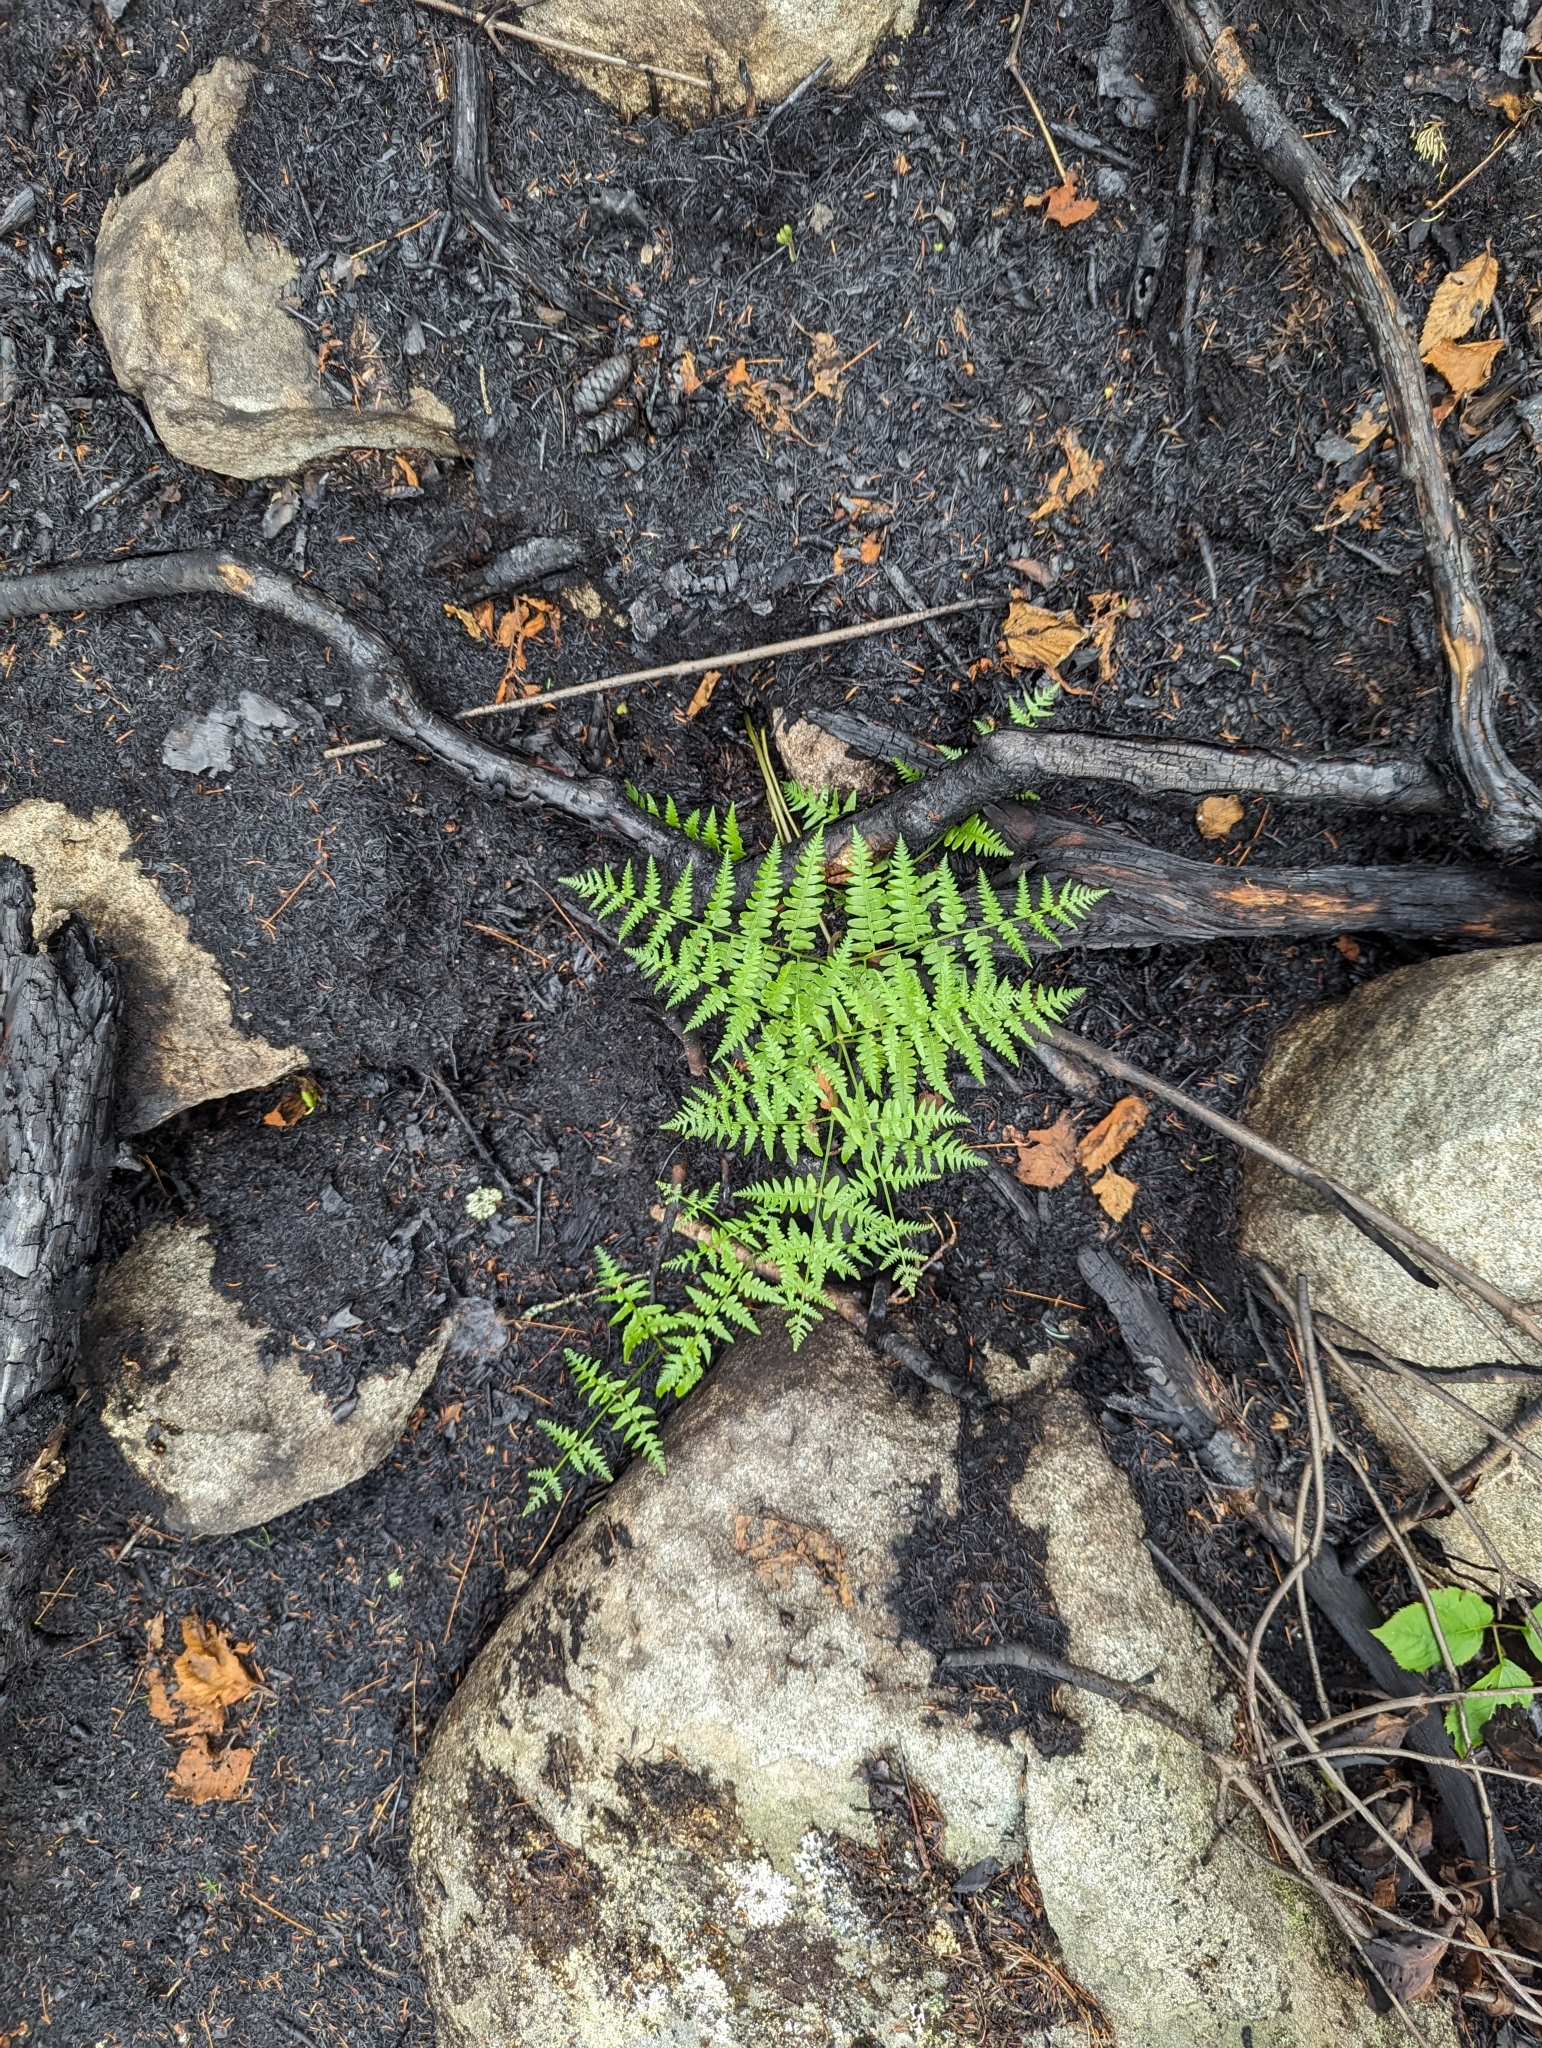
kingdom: Plantae
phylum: Tracheophyta
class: Polypodiopsida
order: Polypodiales
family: Dennstaedtiaceae
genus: Pteridium
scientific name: Pteridium aquilinum
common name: Bracken
